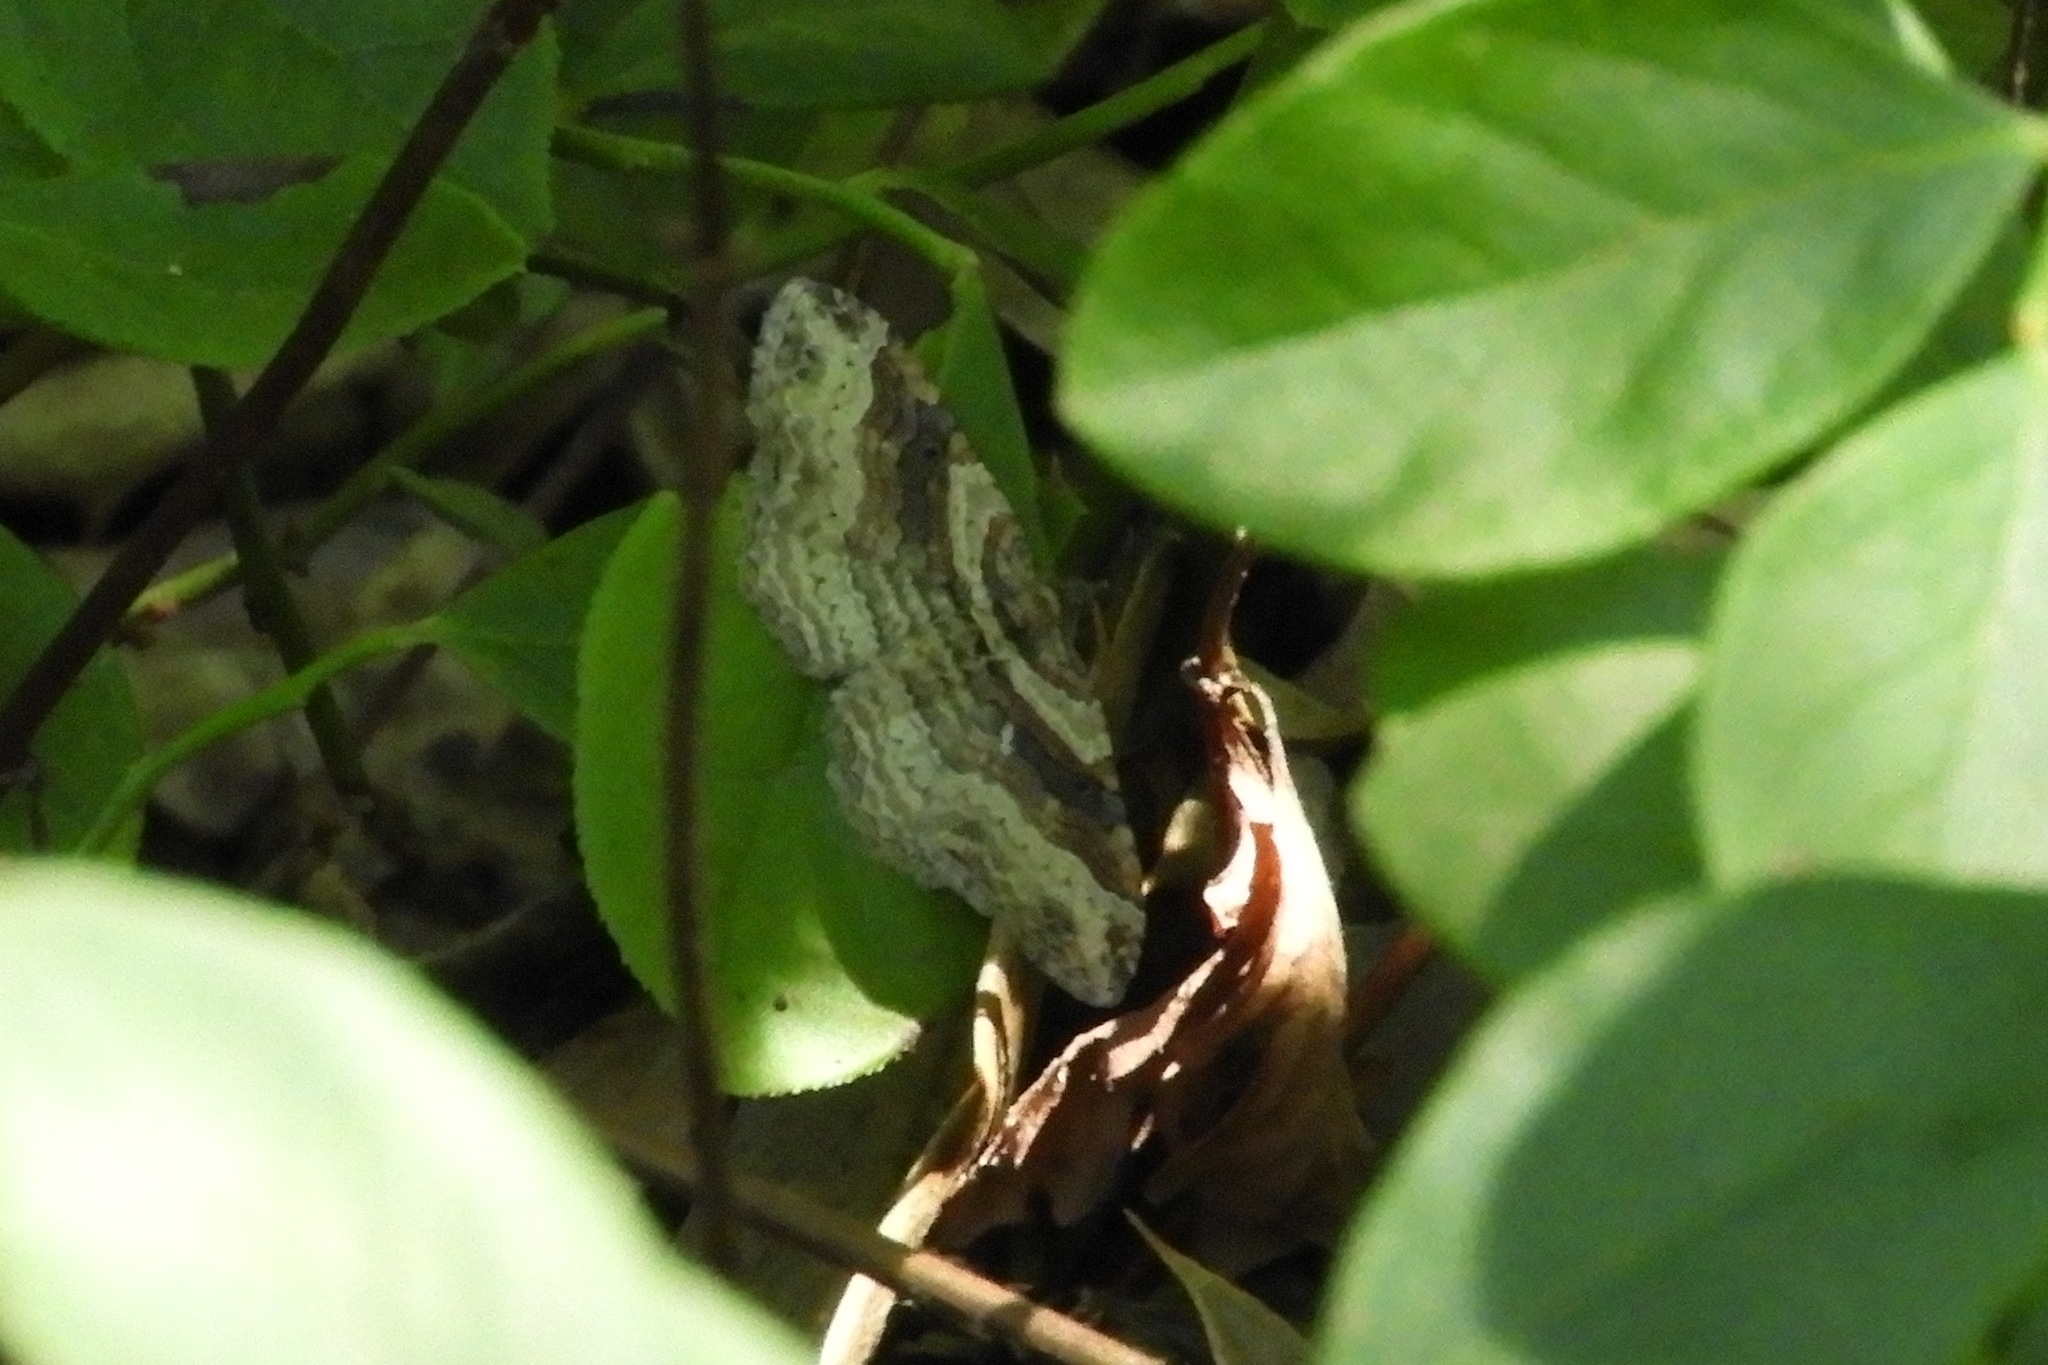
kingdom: Animalia
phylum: Arthropoda
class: Insecta
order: Lepidoptera
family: Geometridae
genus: Costaconvexa
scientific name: Costaconvexa centrostrigaria
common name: Bent-line carpet
